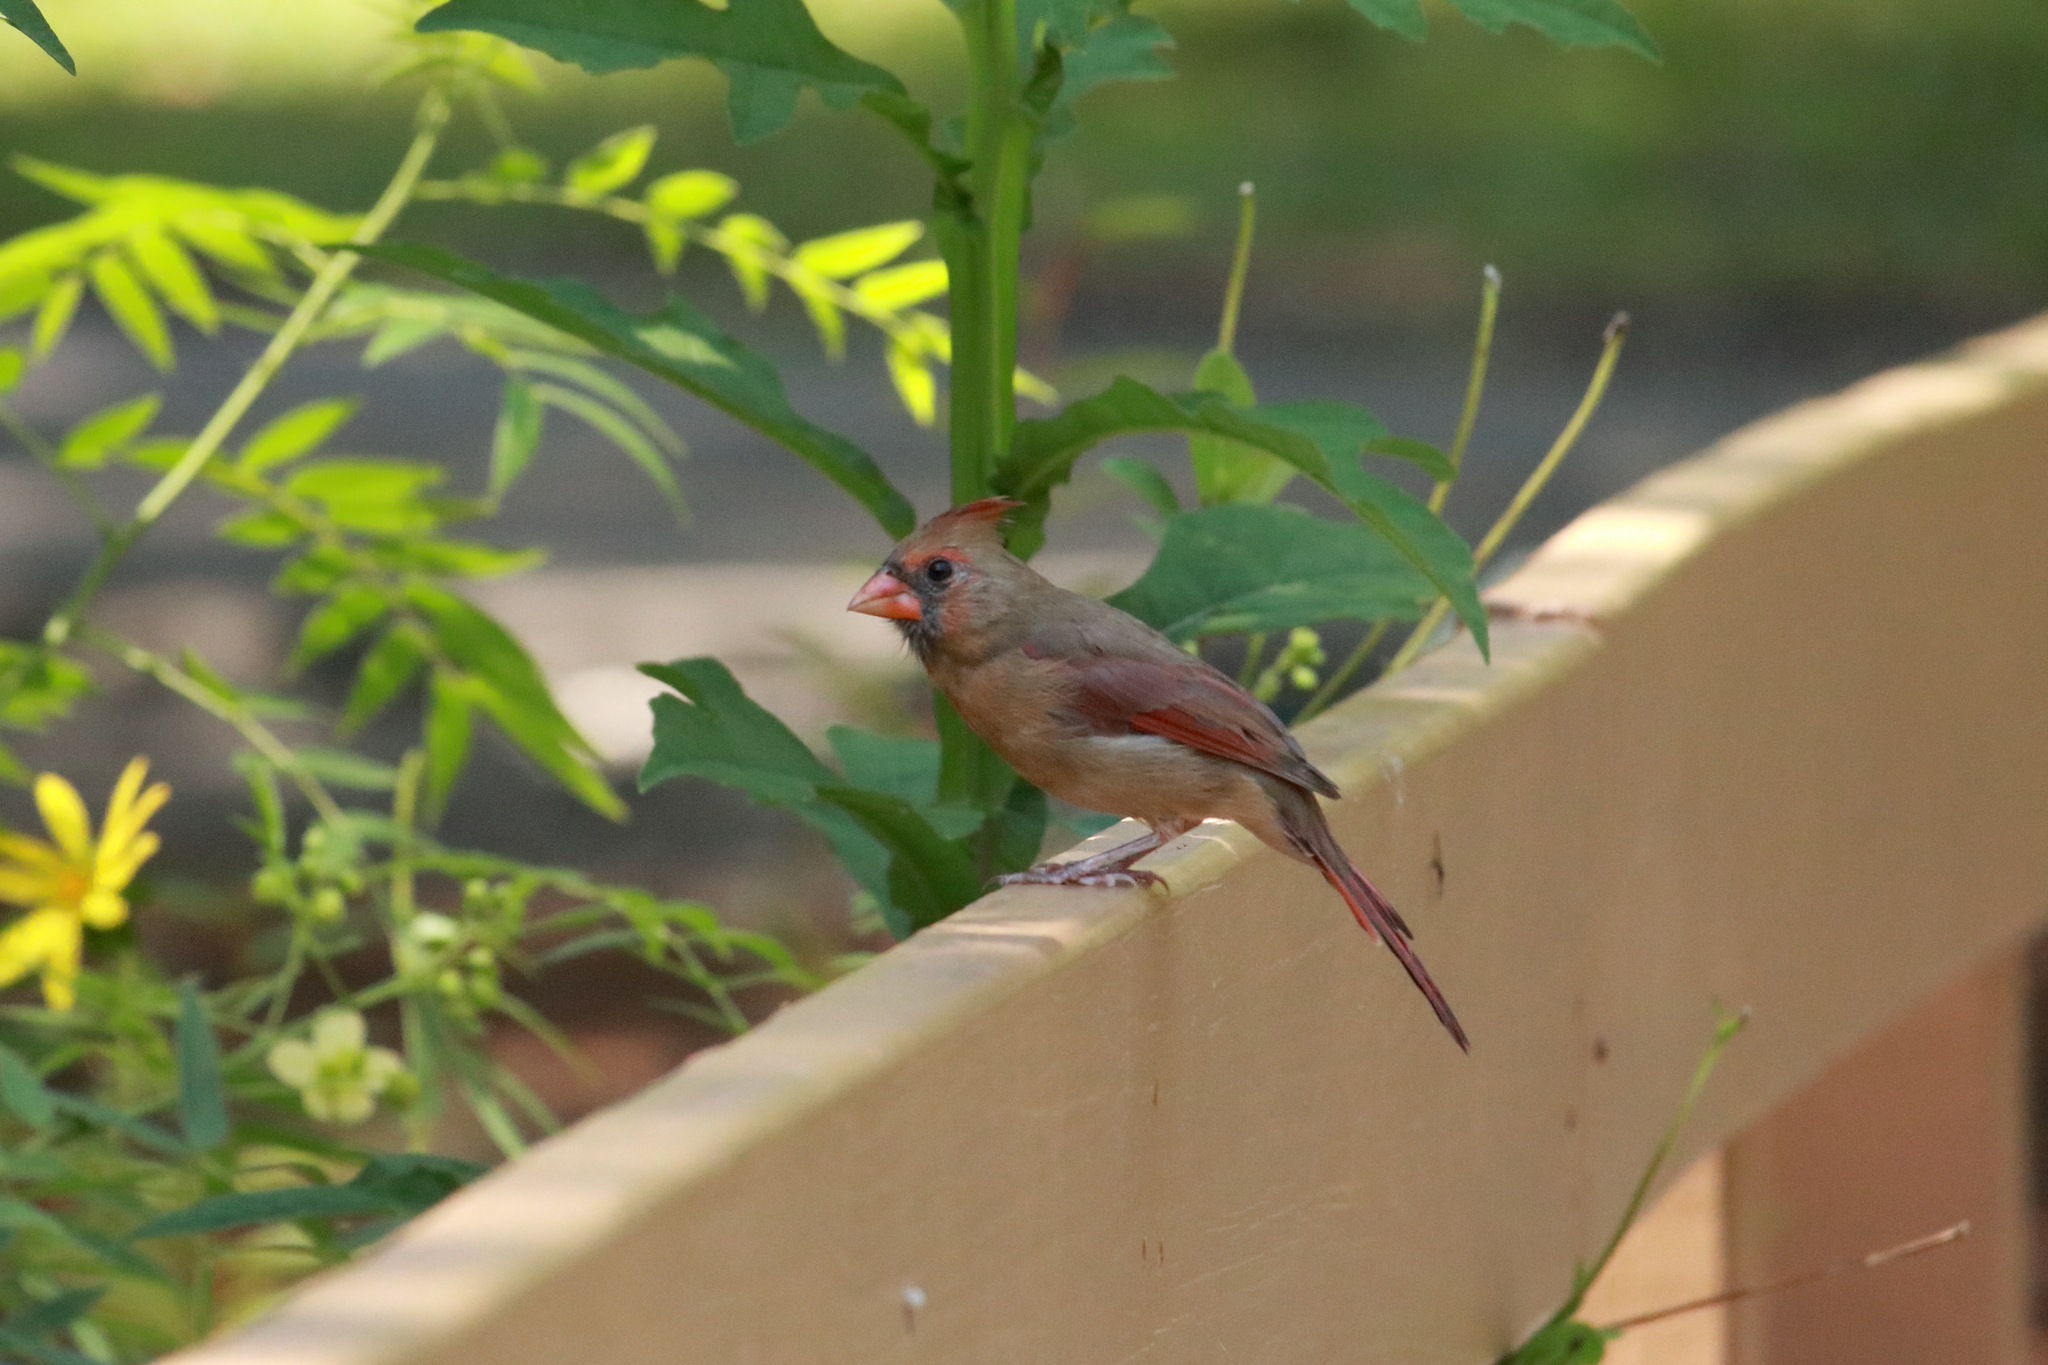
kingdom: Animalia
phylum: Chordata
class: Aves
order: Passeriformes
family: Cardinalidae
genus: Cardinalis
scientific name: Cardinalis cardinalis
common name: Northern cardinal
